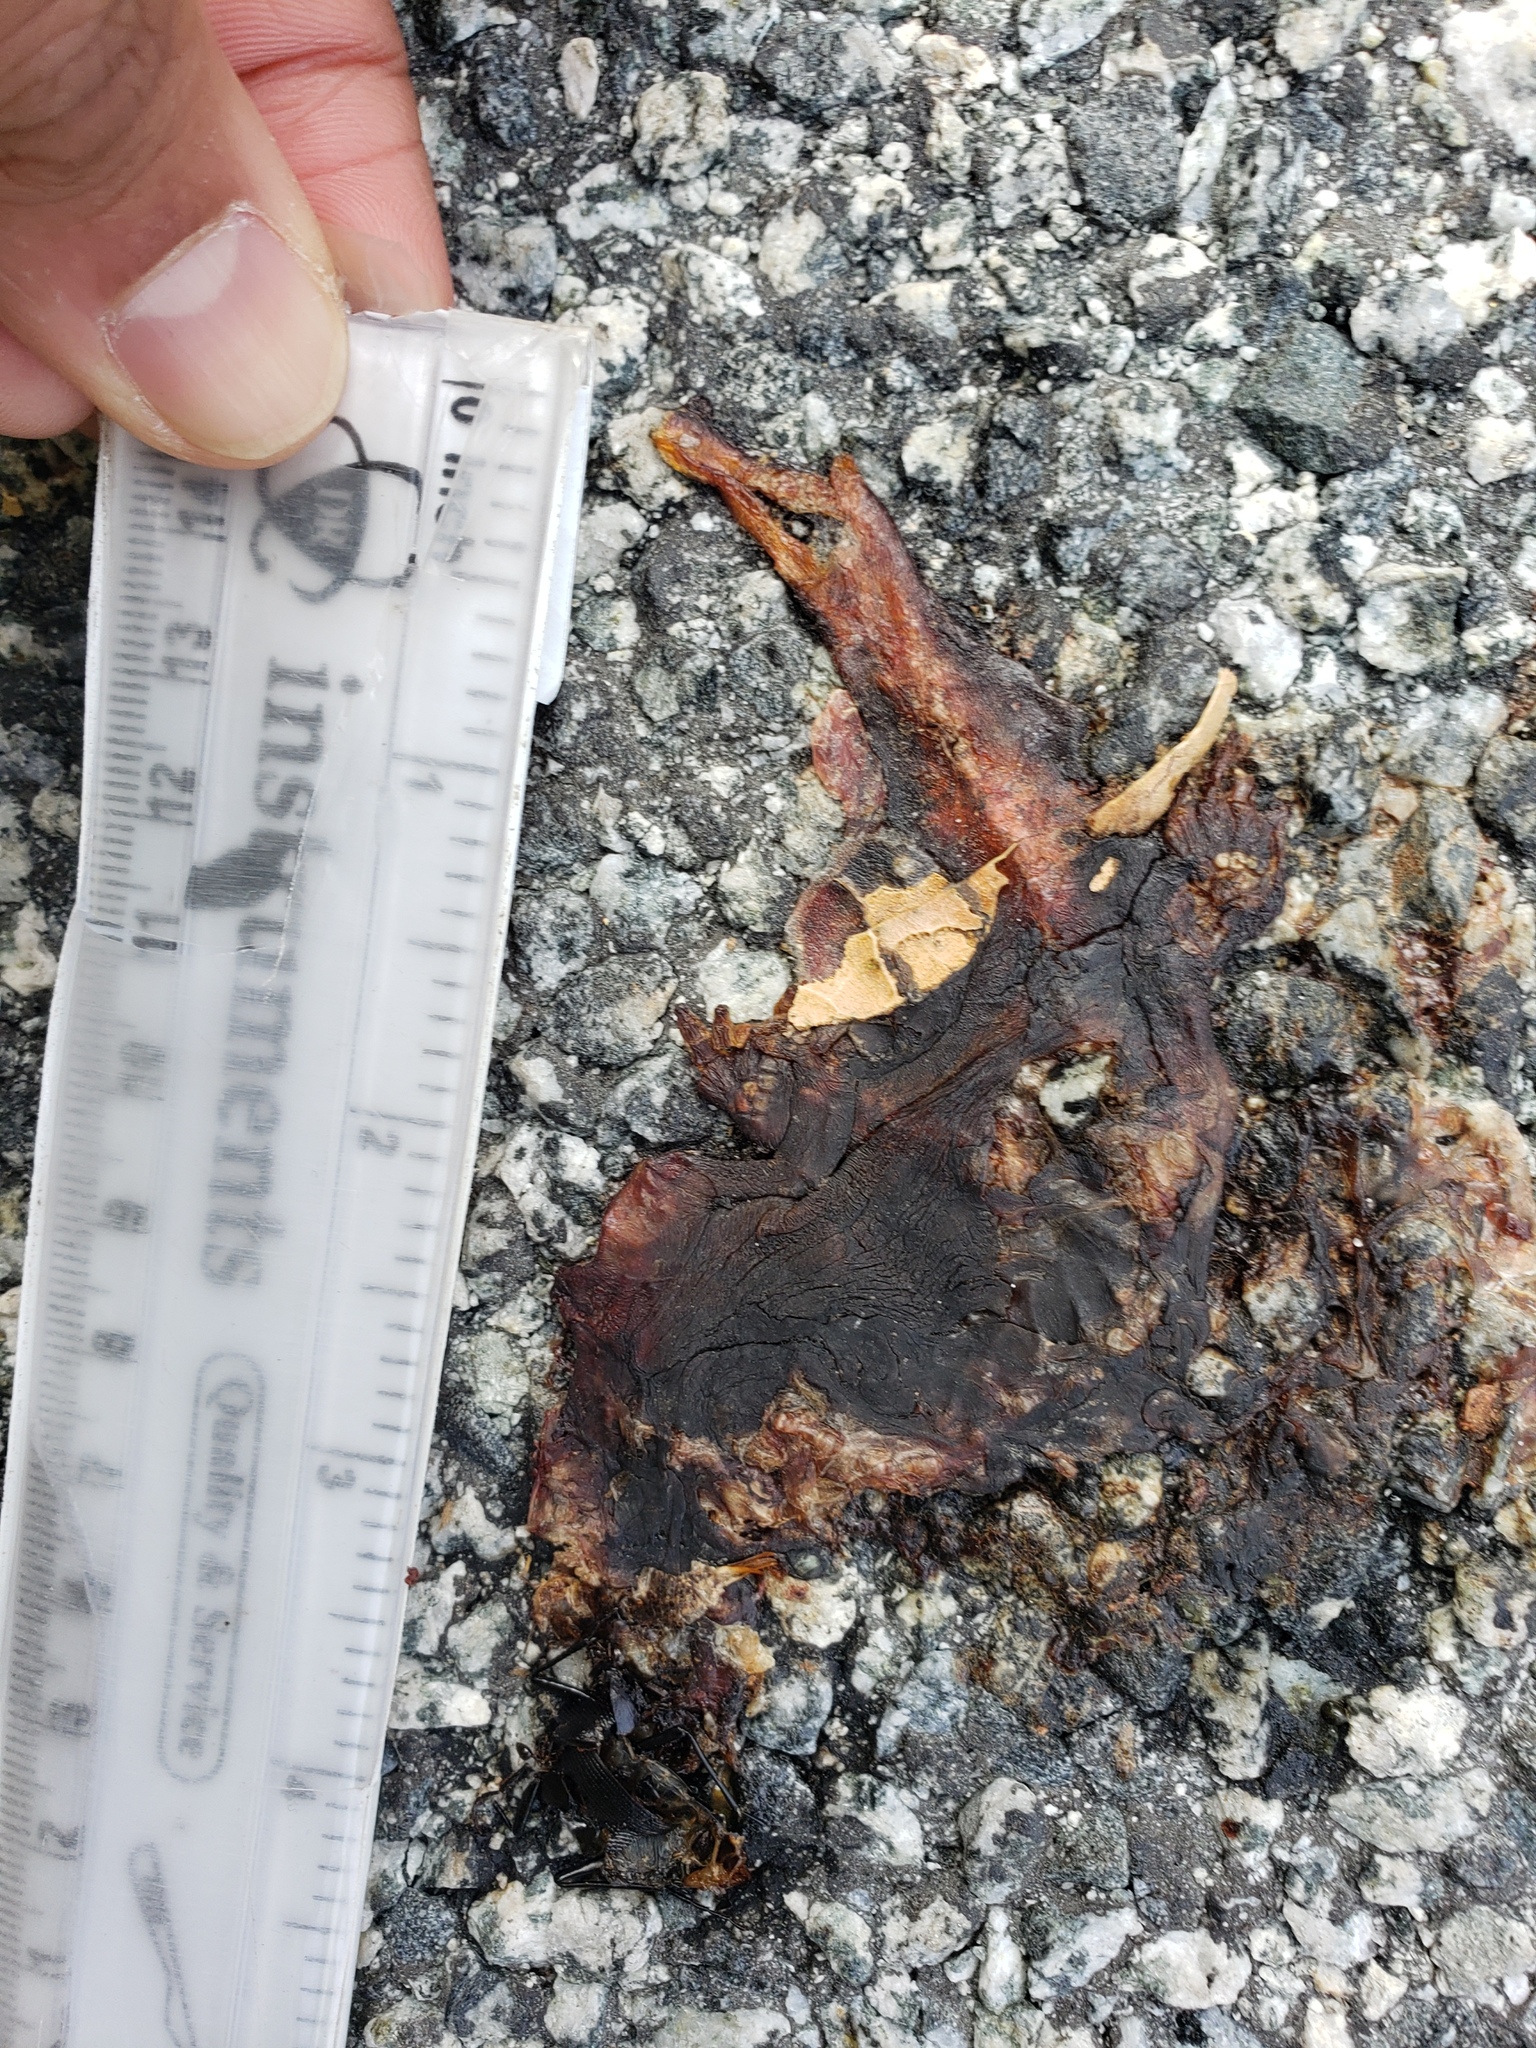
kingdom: Animalia
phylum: Chordata
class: Amphibia
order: Caudata
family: Salamandridae
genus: Taricha
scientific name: Taricha
